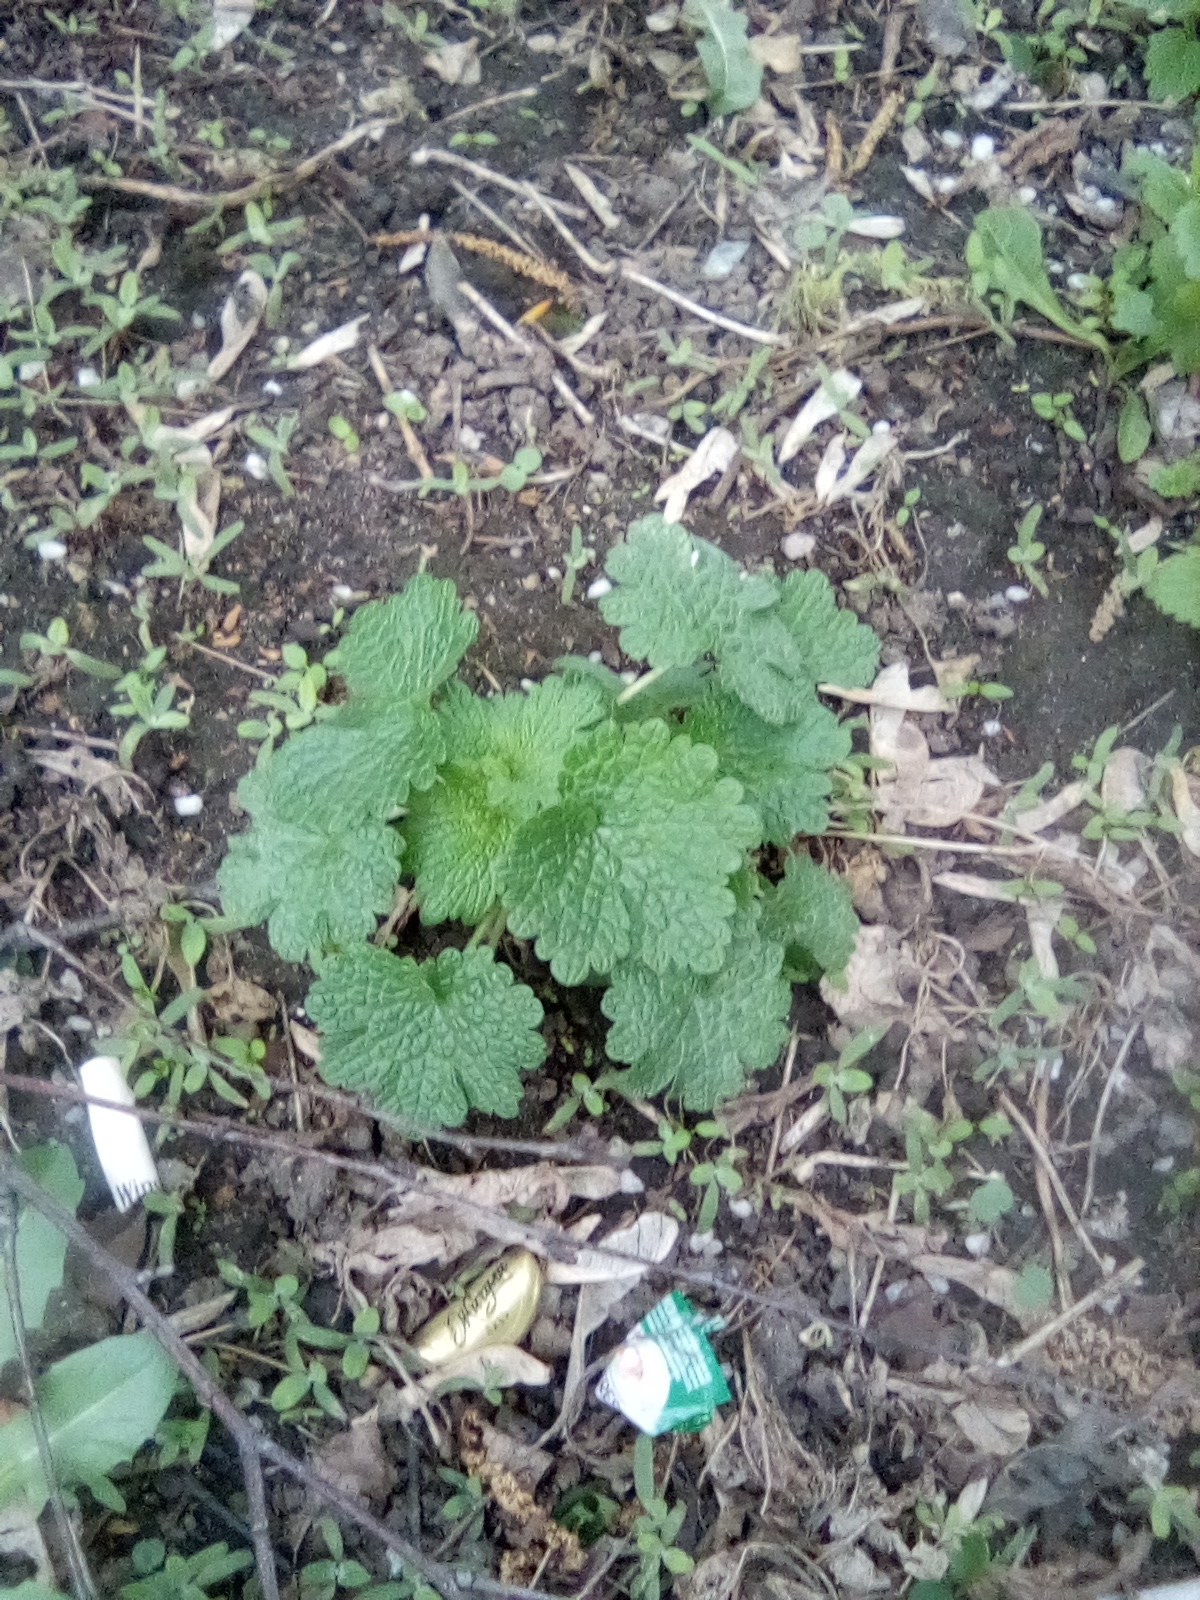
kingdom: Plantae
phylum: Tracheophyta
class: Magnoliopsida
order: Lamiales
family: Lamiaceae
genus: Leonurus
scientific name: Leonurus quinquelobatus
